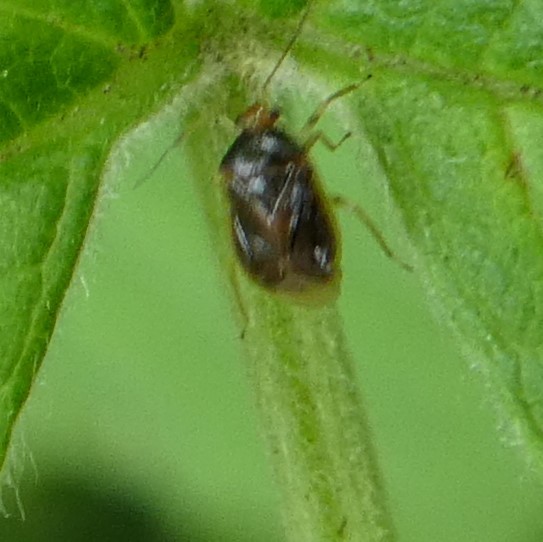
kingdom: Animalia
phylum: Arthropoda
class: Insecta
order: Hemiptera
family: Miridae
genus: Monalocoris
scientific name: Monalocoris filicis
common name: Bracken bug
